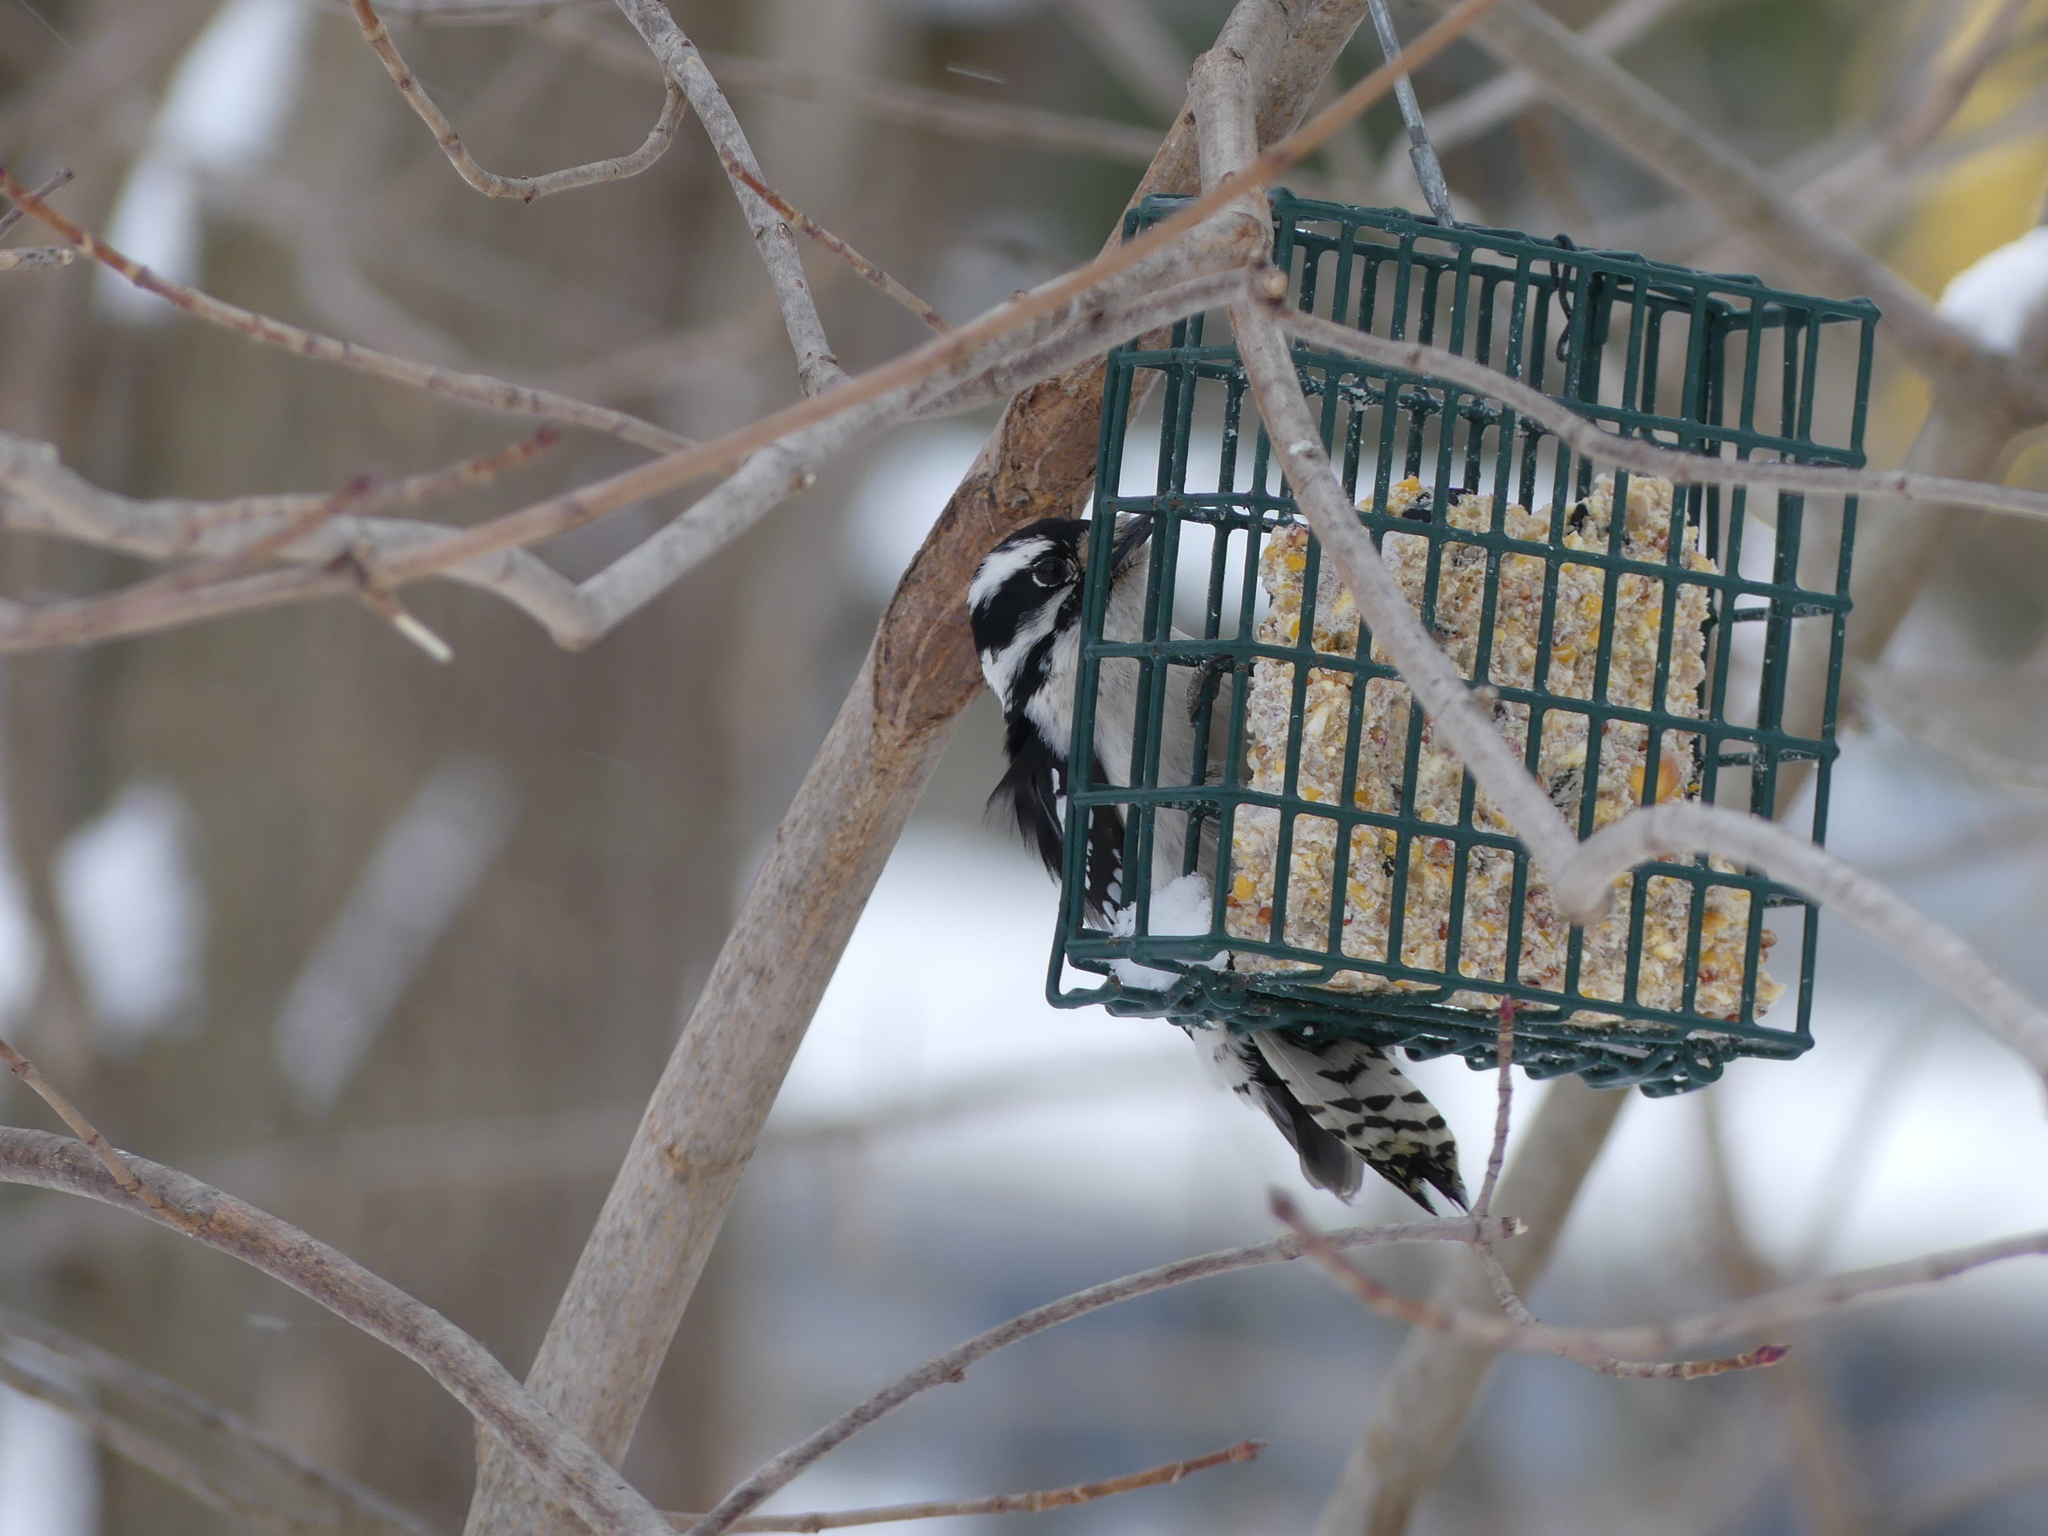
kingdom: Animalia
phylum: Chordata
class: Aves
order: Piciformes
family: Picidae
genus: Dryobates
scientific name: Dryobates pubescens
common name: Downy woodpecker
